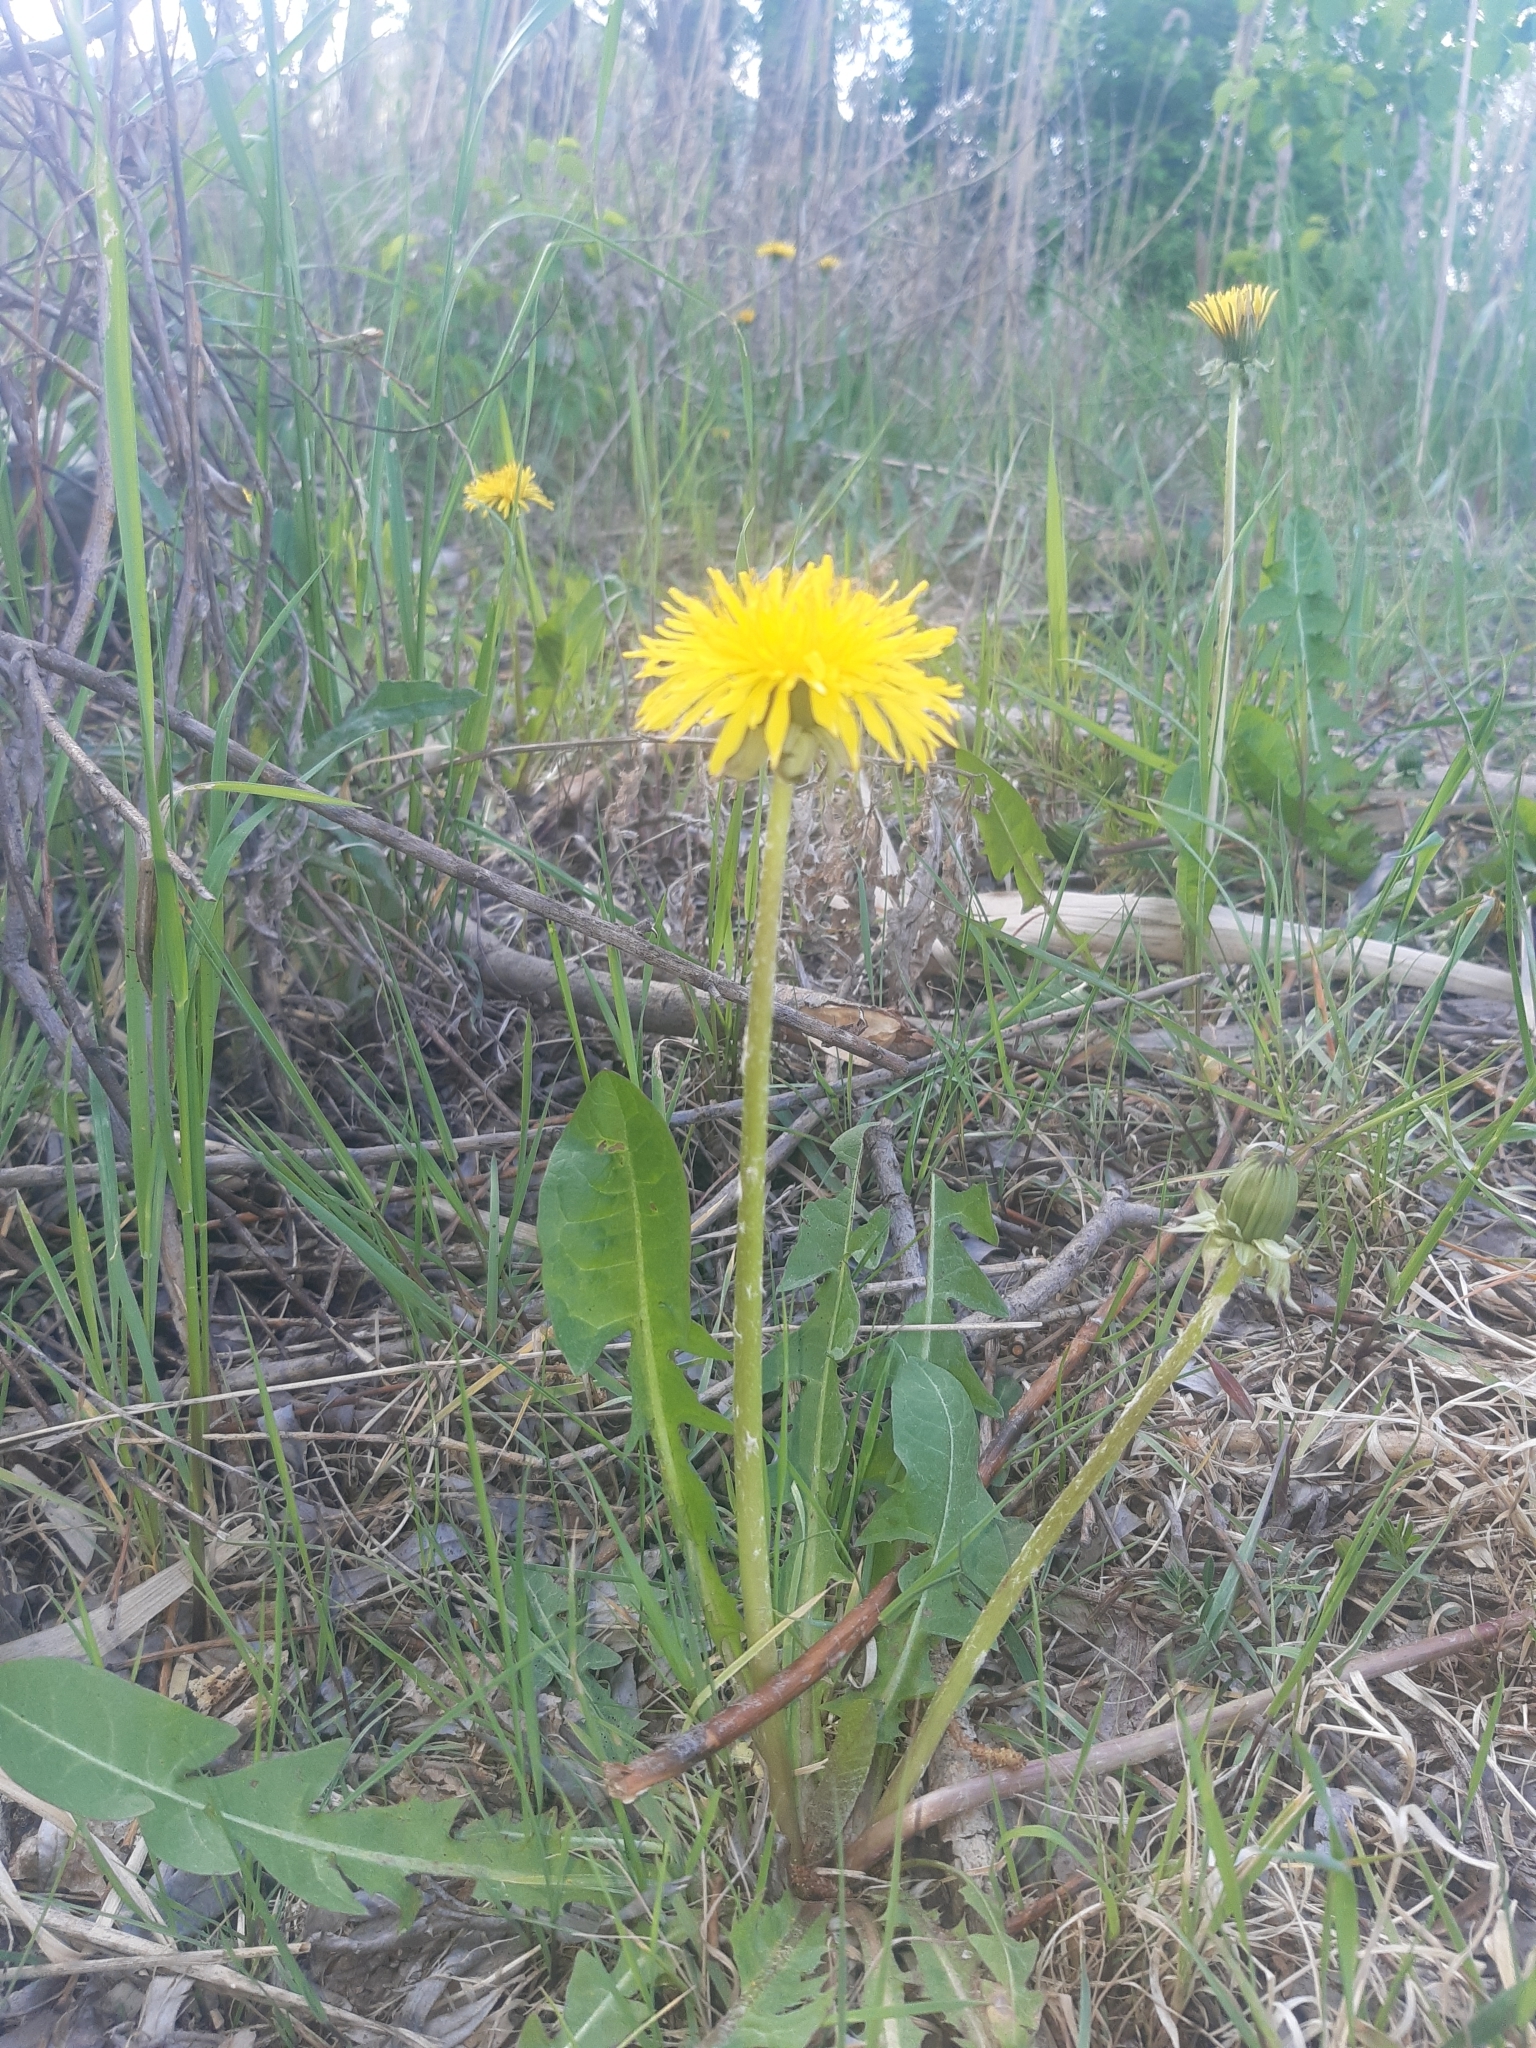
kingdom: Plantae
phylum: Tracheophyta
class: Magnoliopsida
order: Asterales
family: Asteraceae
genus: Taraxacum
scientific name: Taraxacum officinale
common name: Common dandelion
